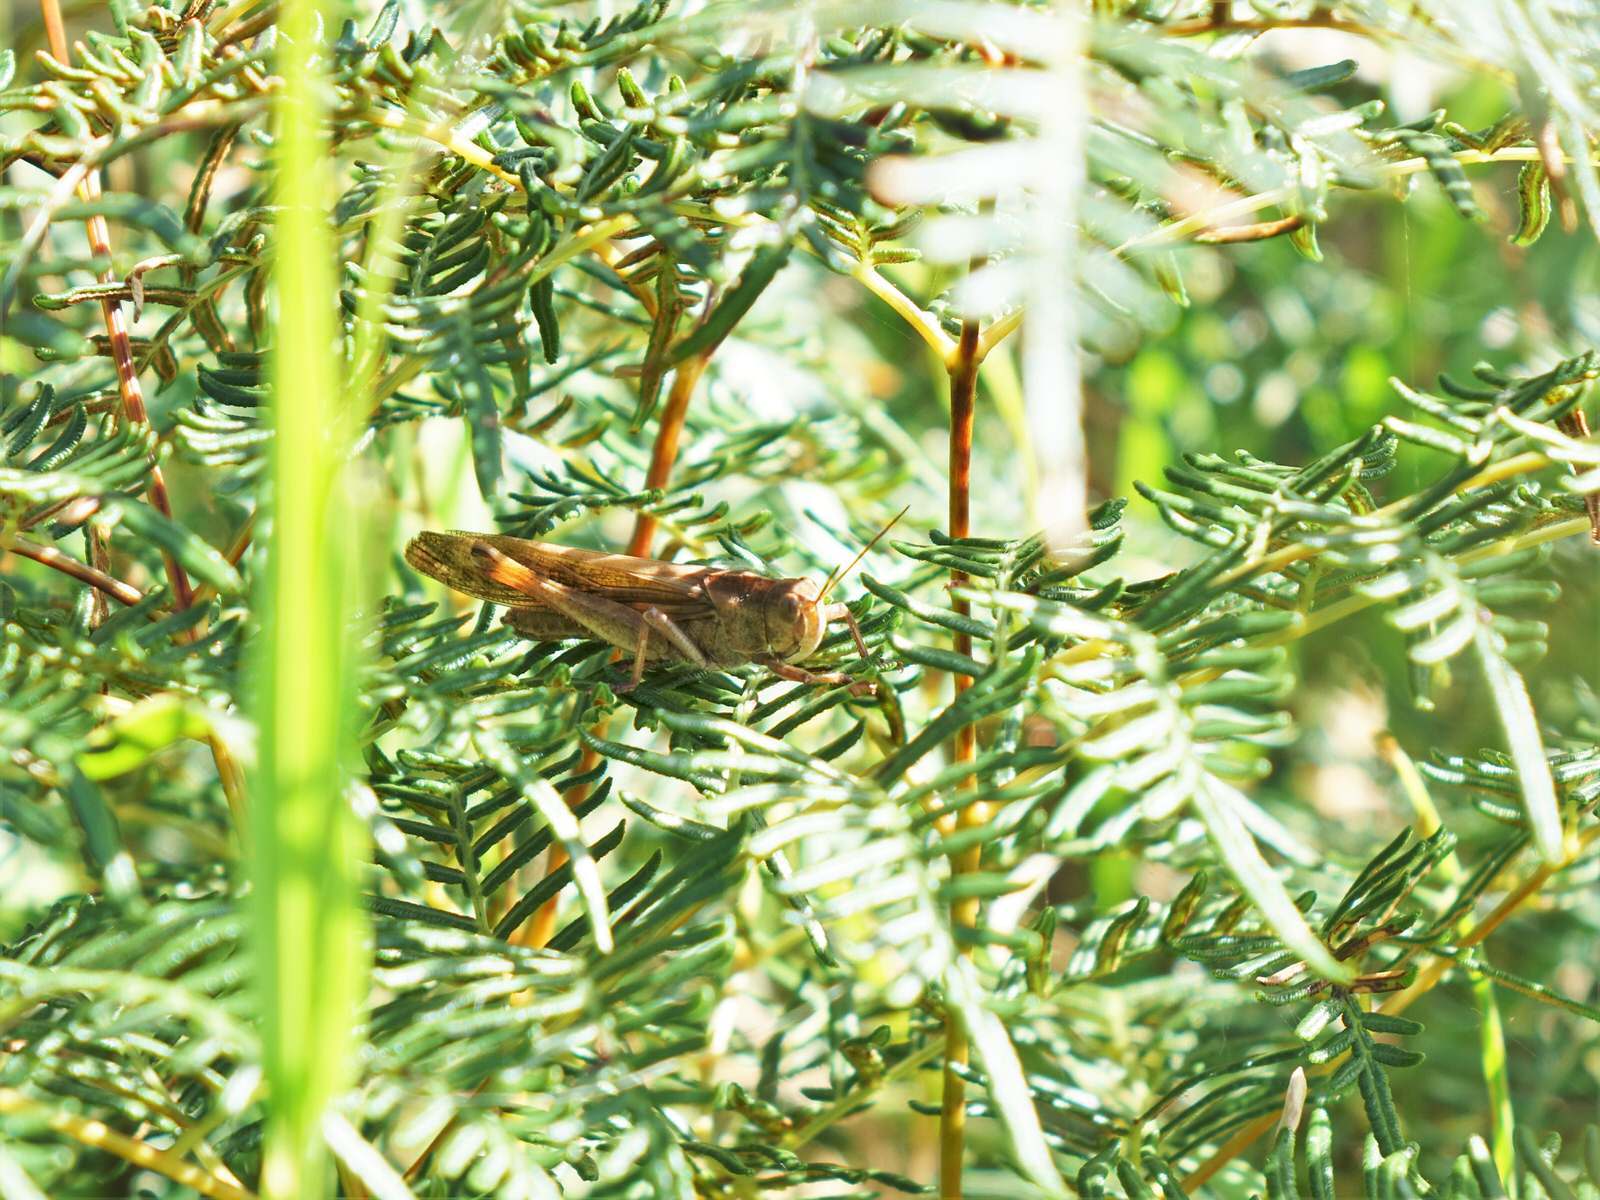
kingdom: Animalia
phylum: Arthropoda
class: Insecta
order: Orthoptera
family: Acrididae
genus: Locusta
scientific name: Locusta migratoria
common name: Migratory locust
